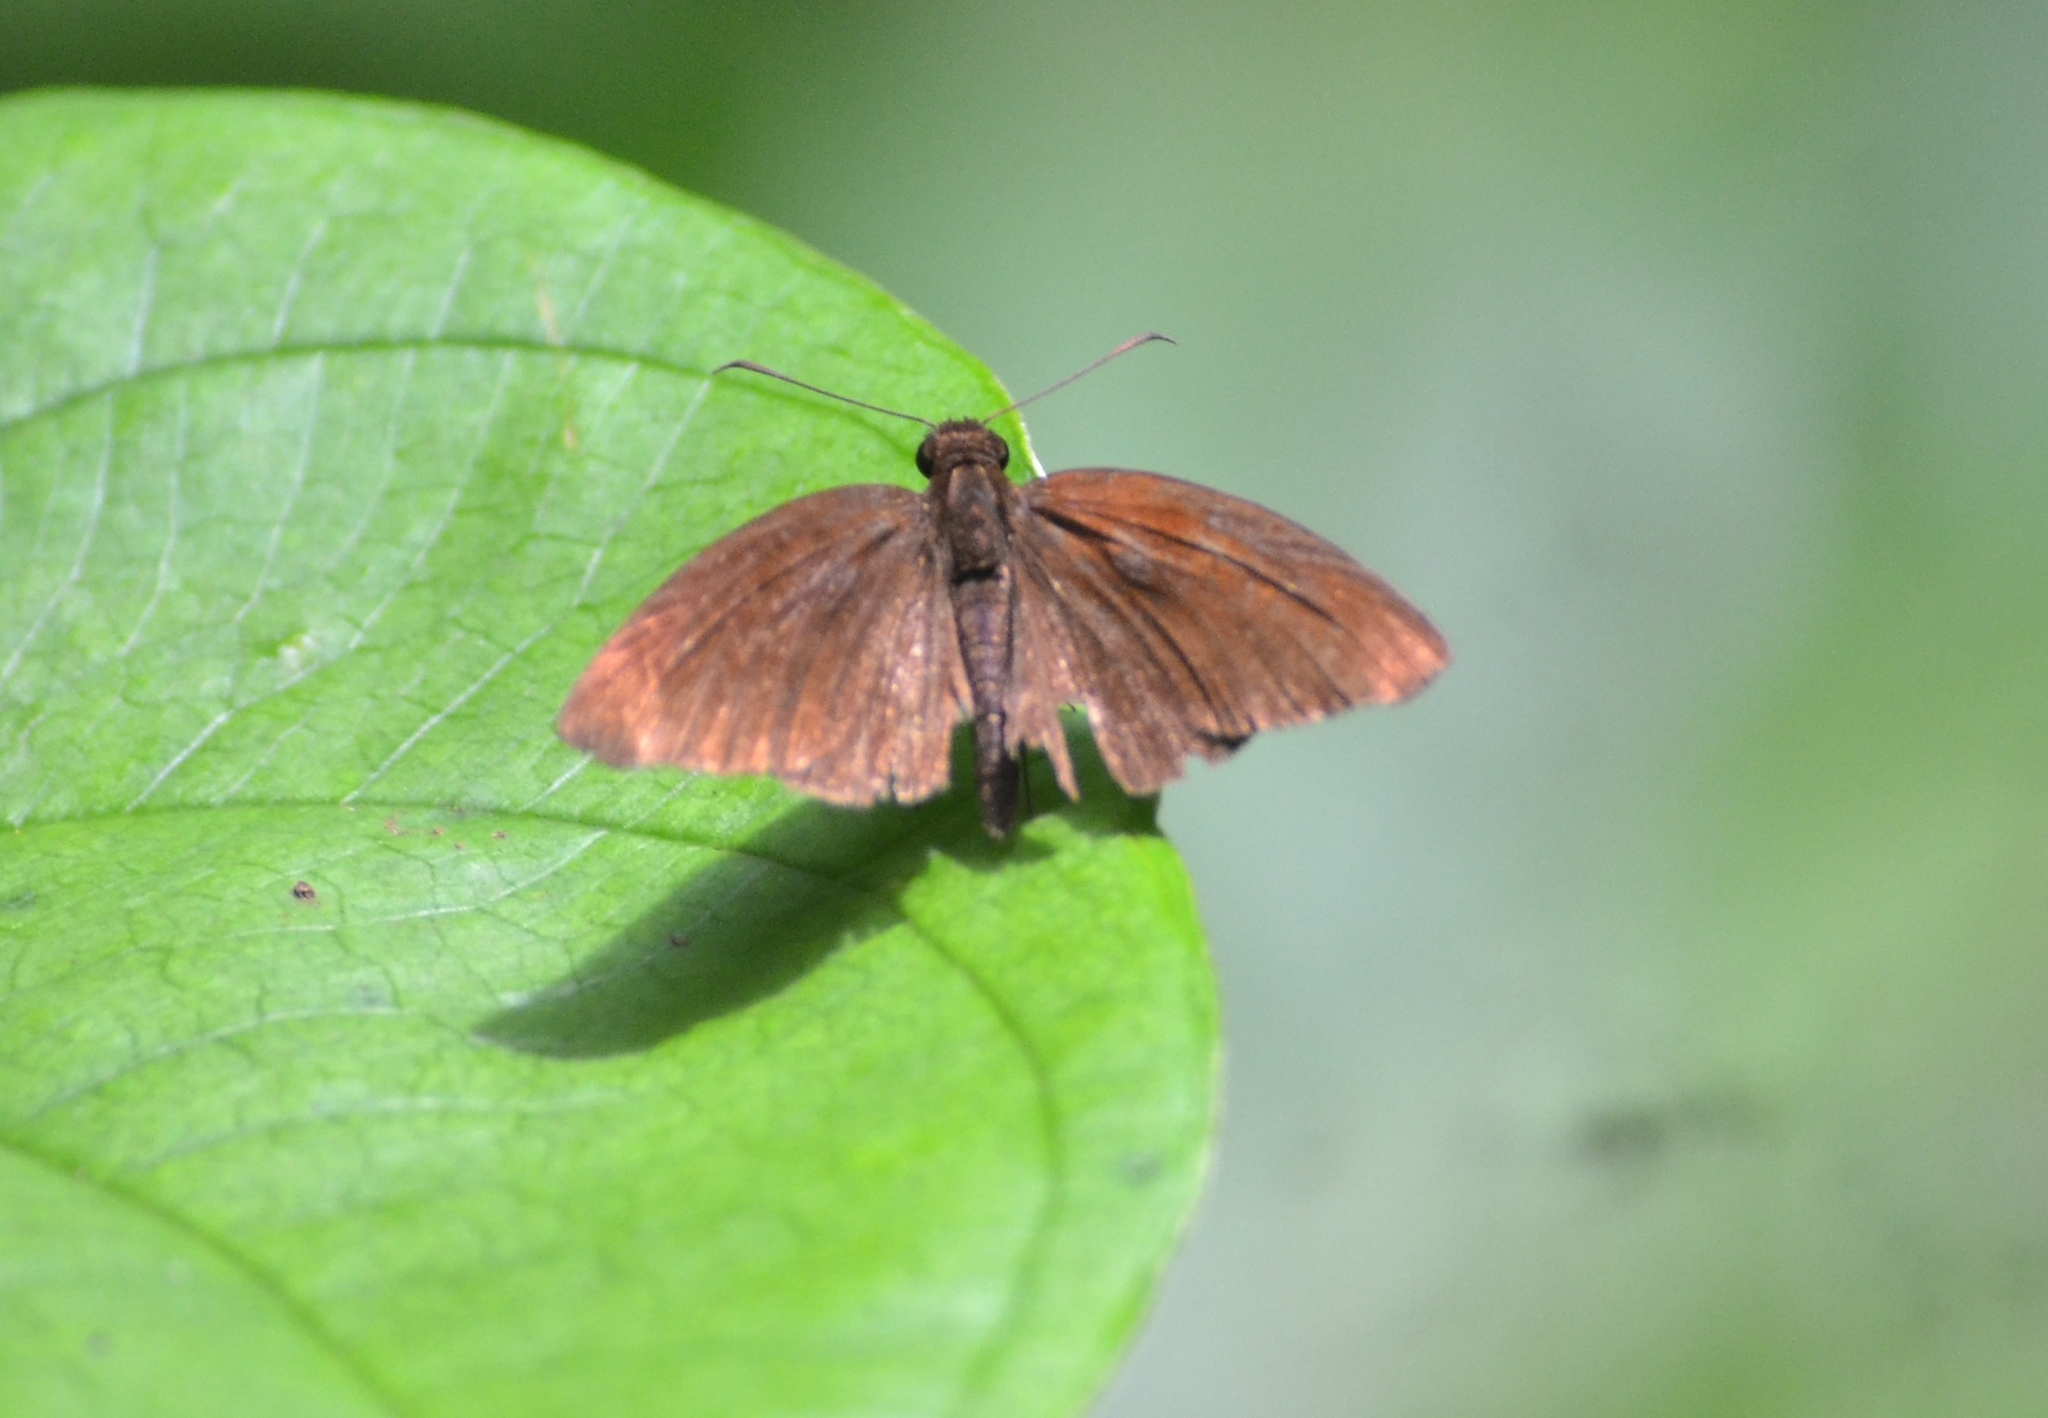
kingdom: Animalia
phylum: Arthropoda
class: Insecta
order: Lepidoptera
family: Hesperiidae
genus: Psolos
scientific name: Psolos fuligo
